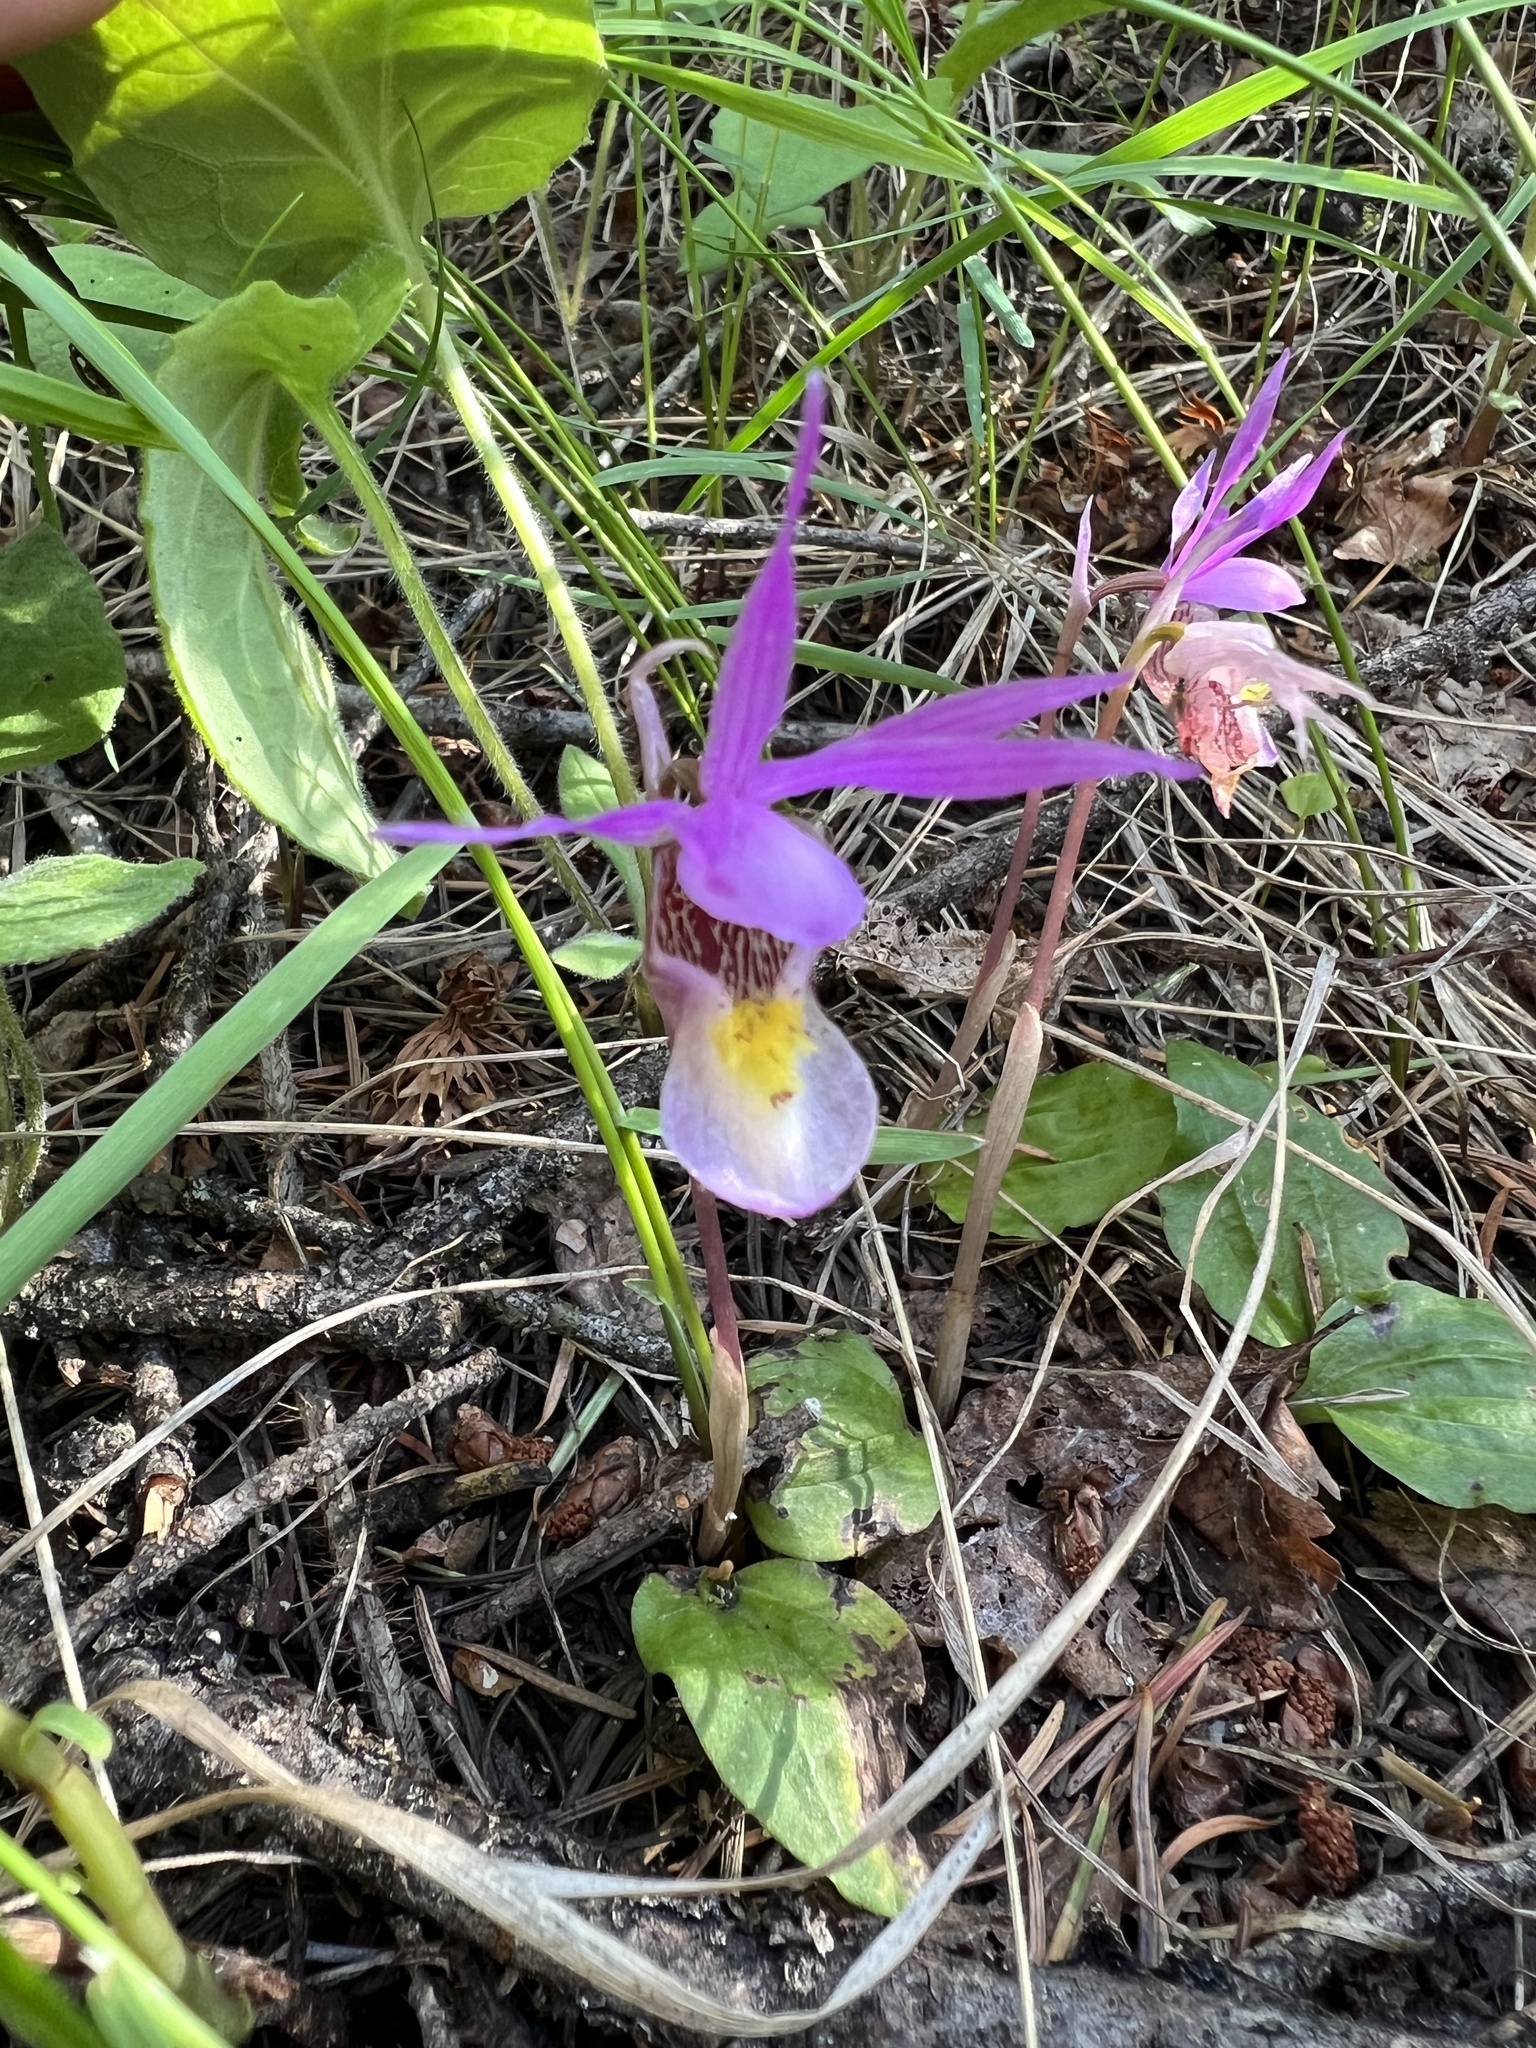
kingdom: Plantae
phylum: Tracheophyta
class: Liliopsida
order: Asparagales
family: Orchidaceae
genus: Calypso
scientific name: Calypso bulbosa
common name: Calypso
